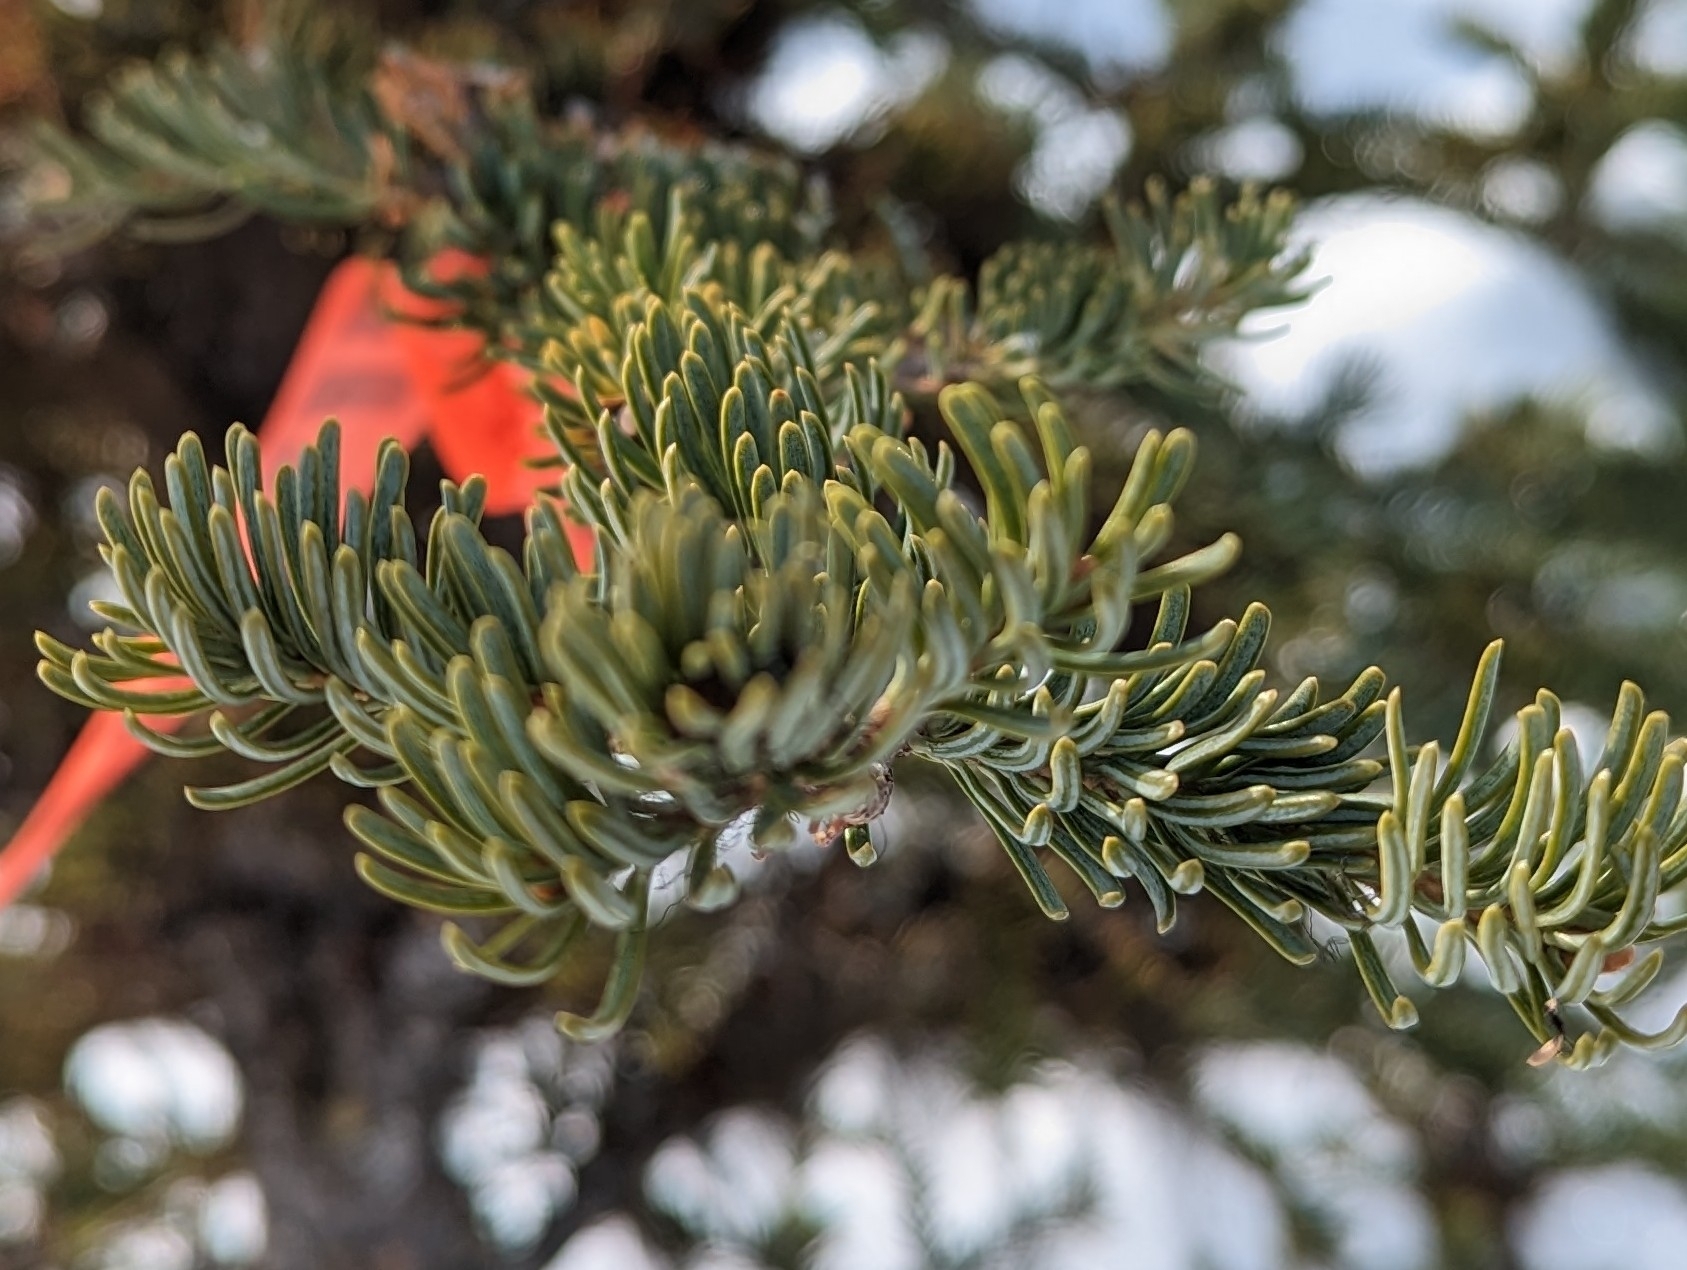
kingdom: Plantae
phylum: Tracheophyta
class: Pinopsida
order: Pinales
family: Pinaceae
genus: Abies
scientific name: Abies lasiocarpa
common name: Subalpine fir
